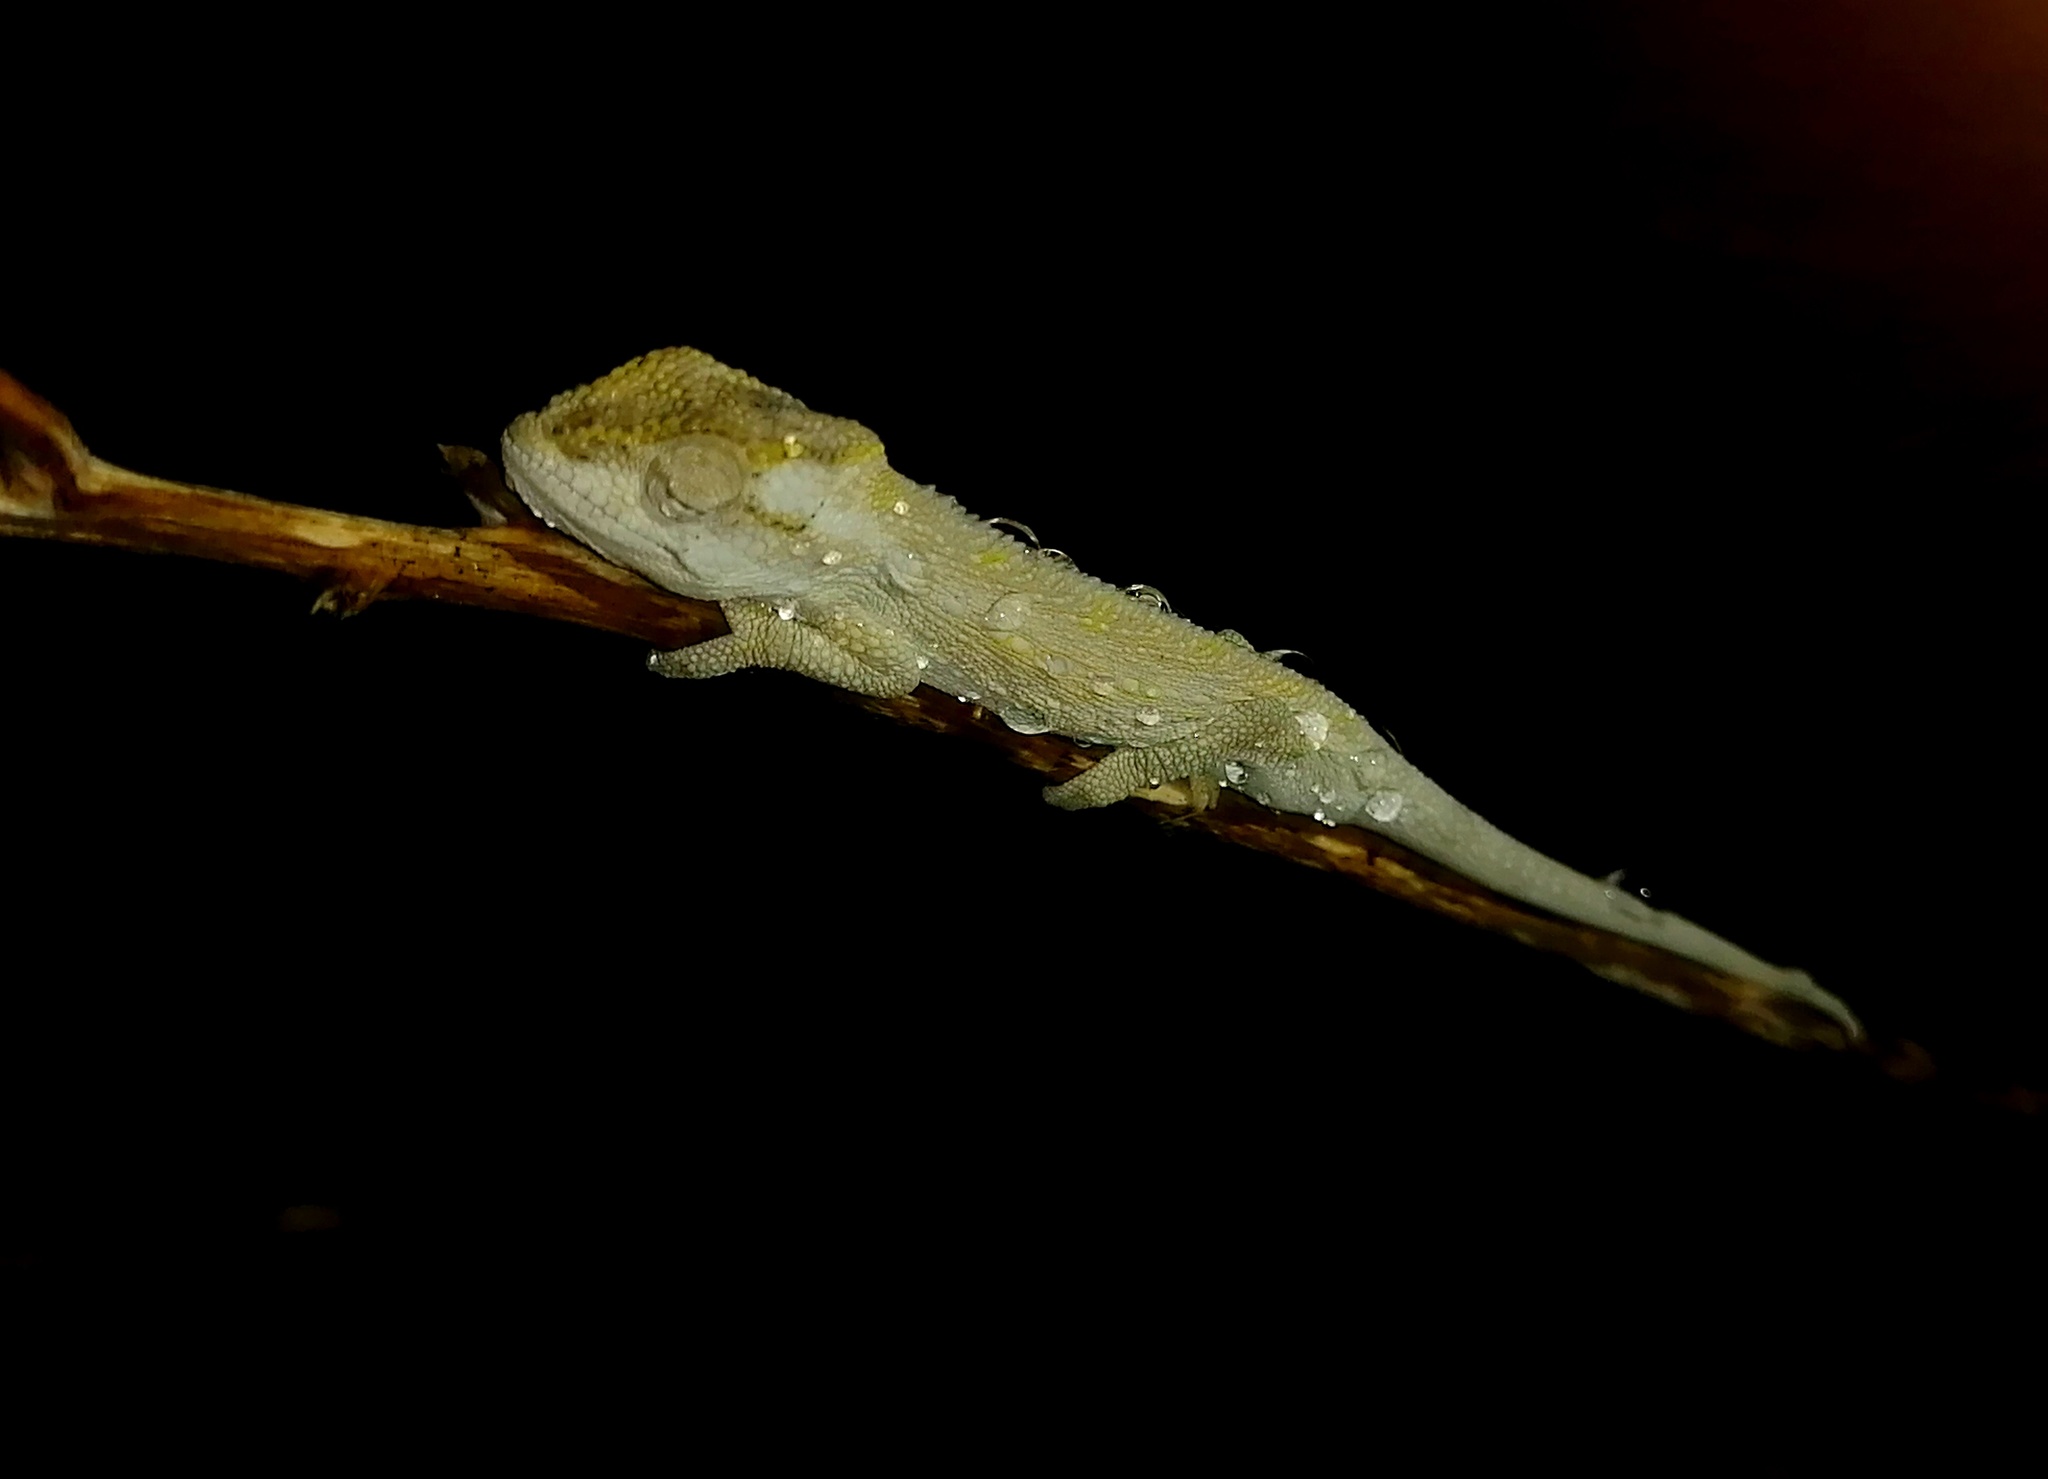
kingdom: Animalia
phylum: Chordata
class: Squamata
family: Chamaeleonidae
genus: Bradypodion
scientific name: Bradypodion pumilum
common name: Cape dwarf chameleon
